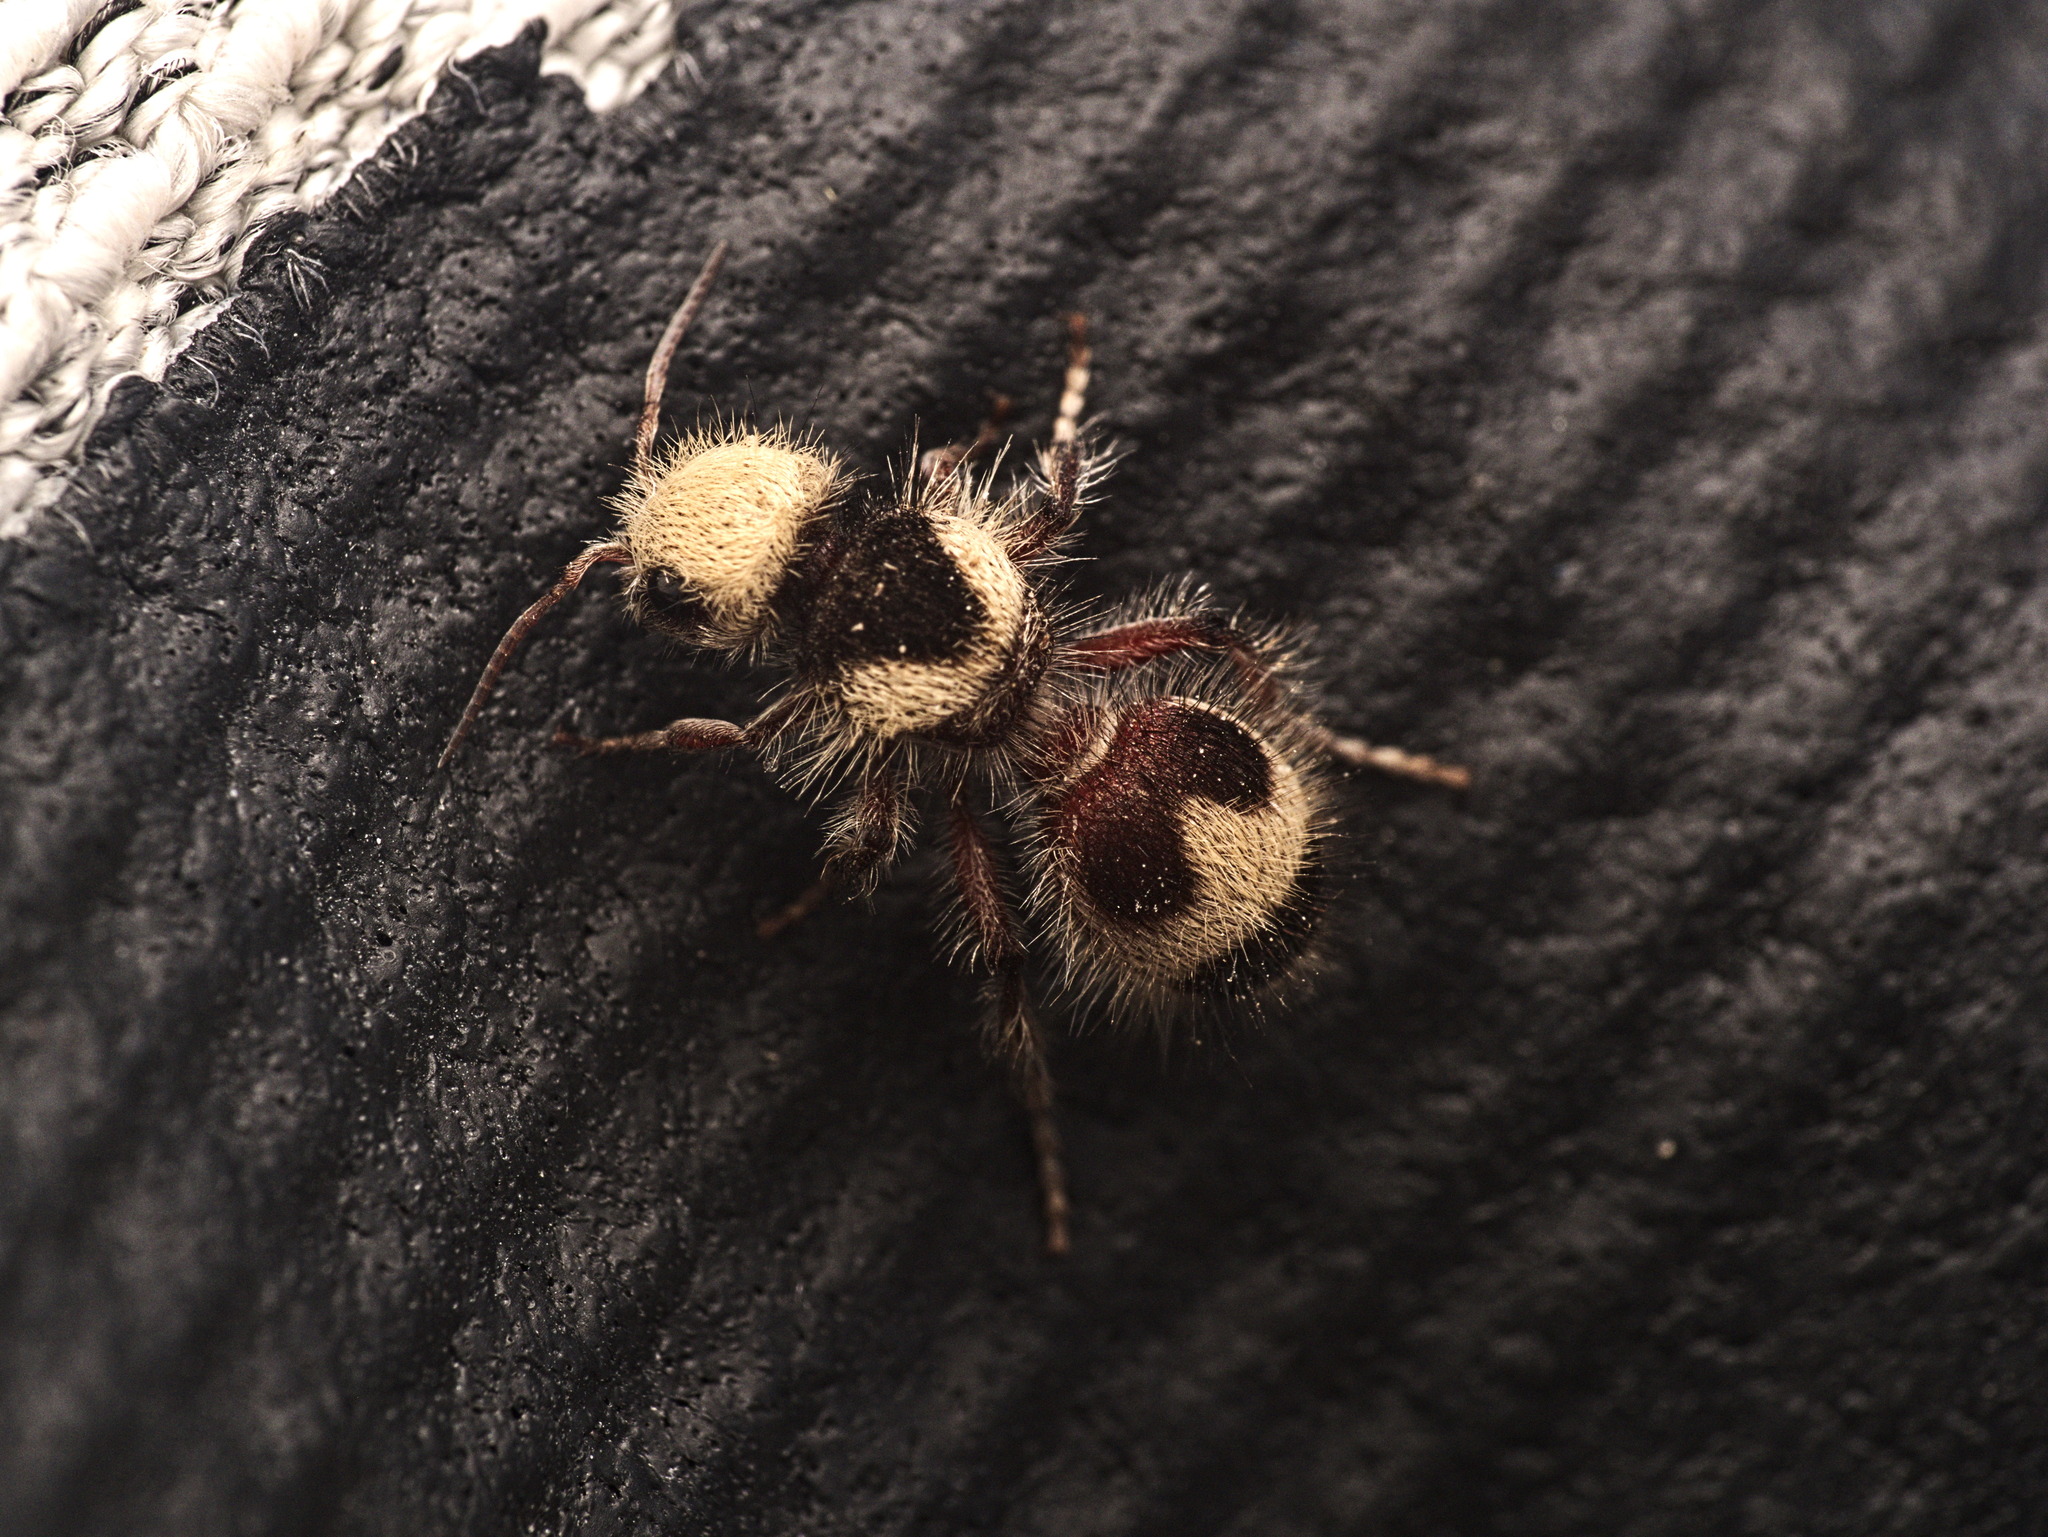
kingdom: Animalia
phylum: Arthropoda
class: Insecta
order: Hymenoptera
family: Mutillidae
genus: Dasymutilla
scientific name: Dasymutilla canella
